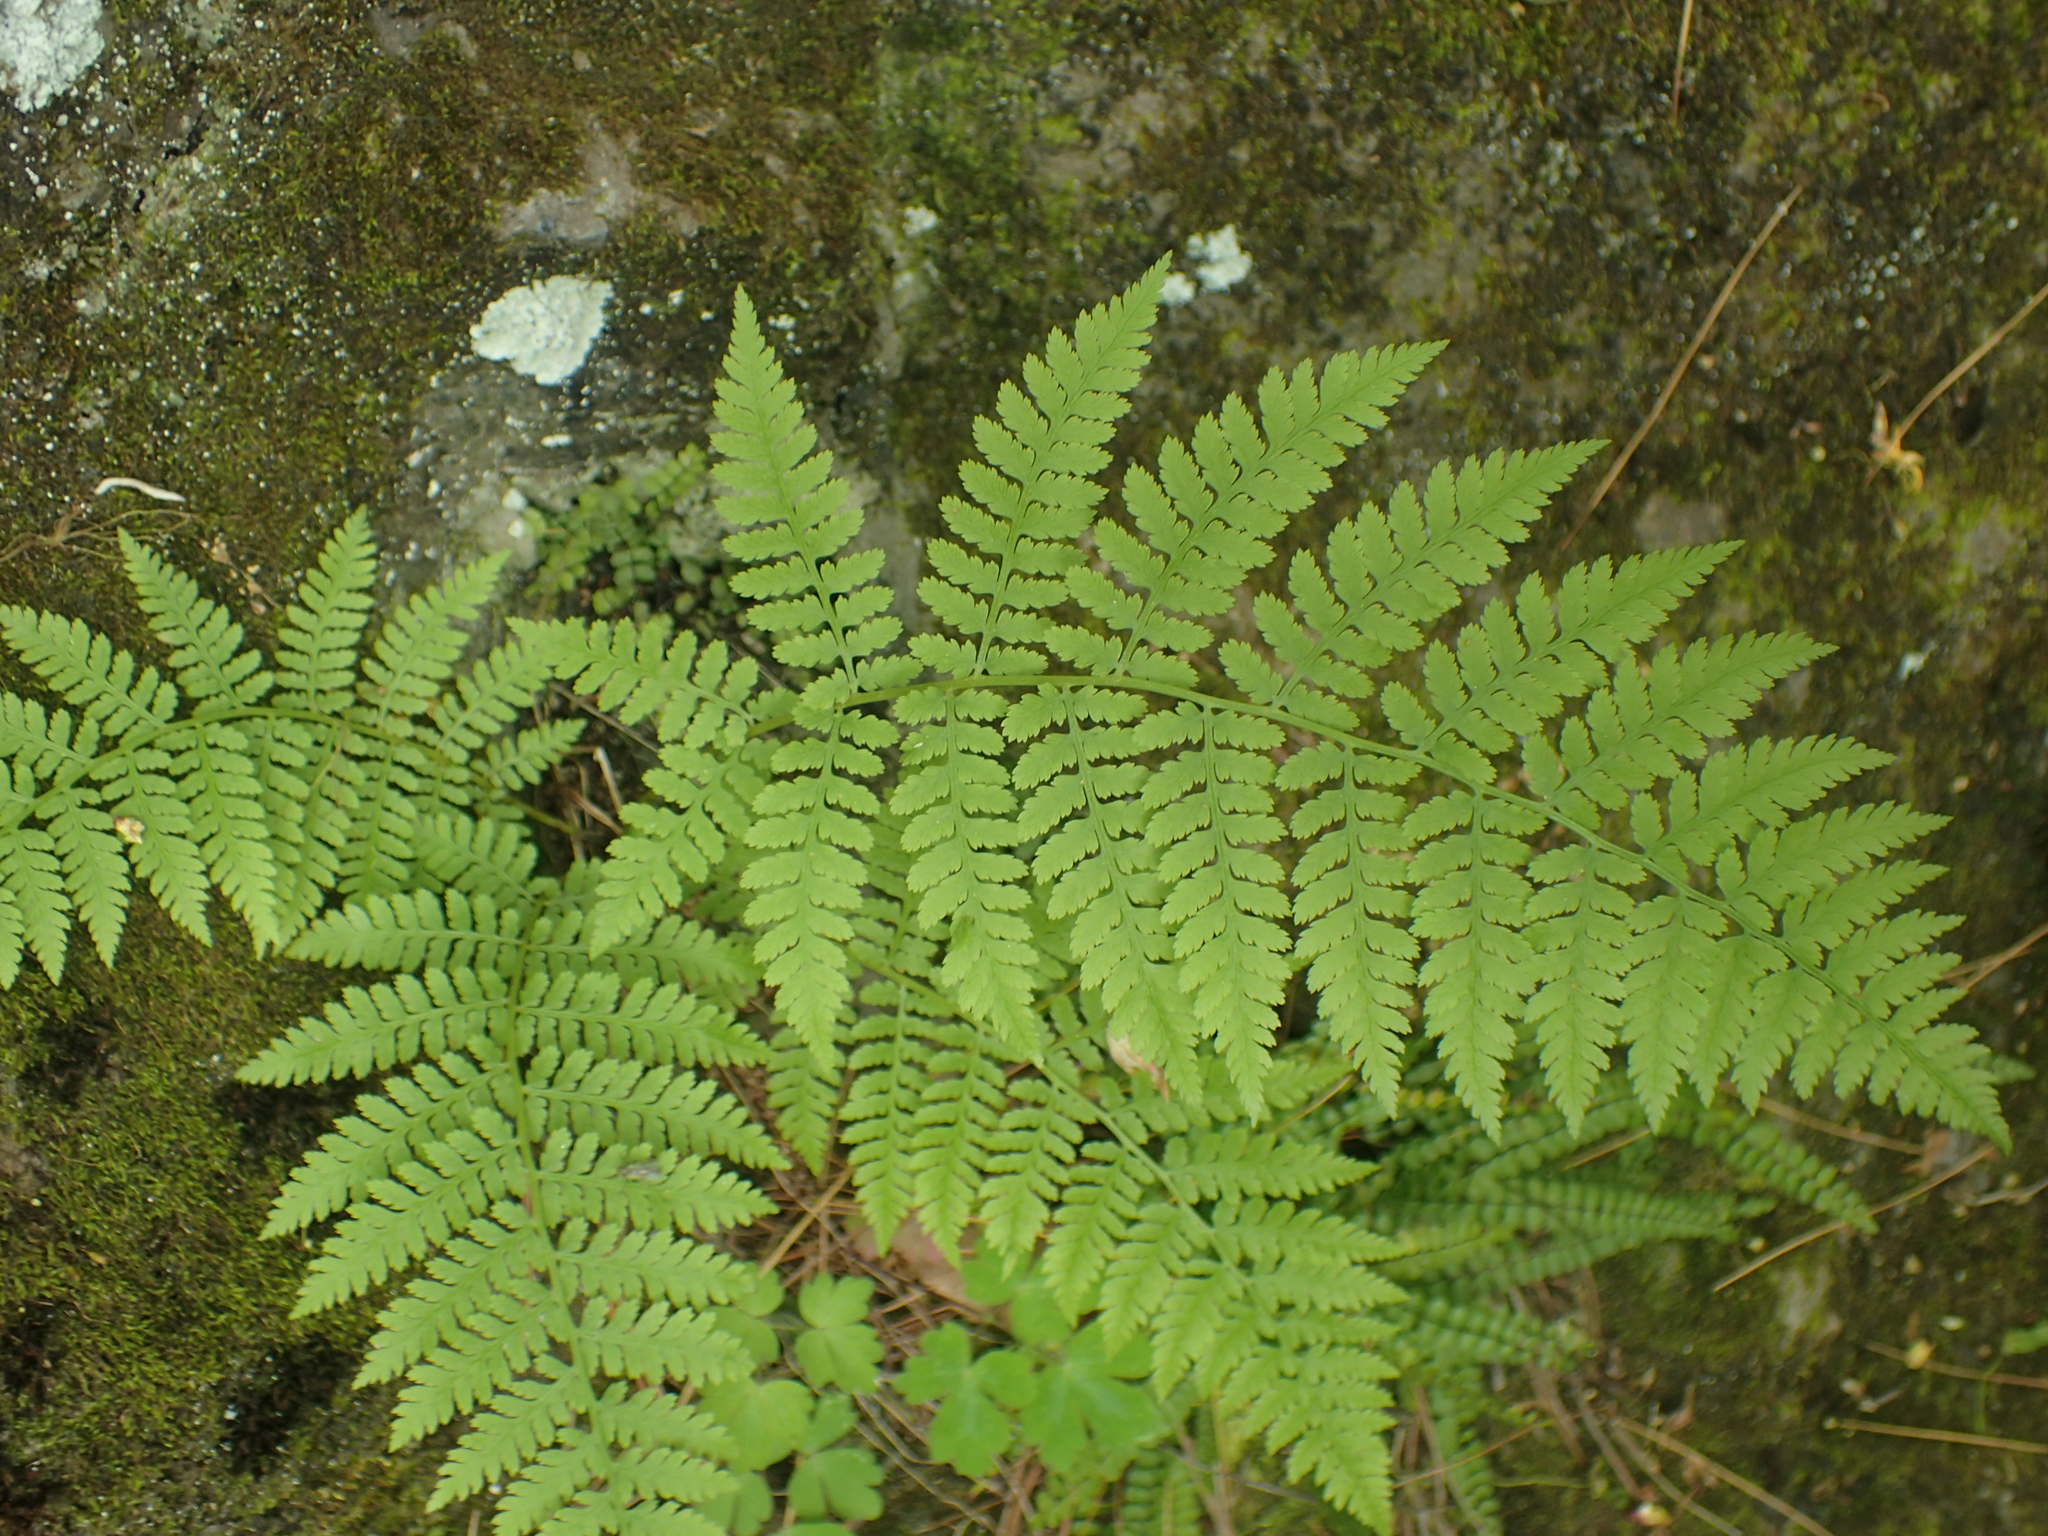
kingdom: Plantae
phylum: Tracheophyta
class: Polypodiopsida
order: Polypodiales
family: Athyriaceae
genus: Athyrium
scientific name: Athyrium angustum
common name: Northern lady fern
